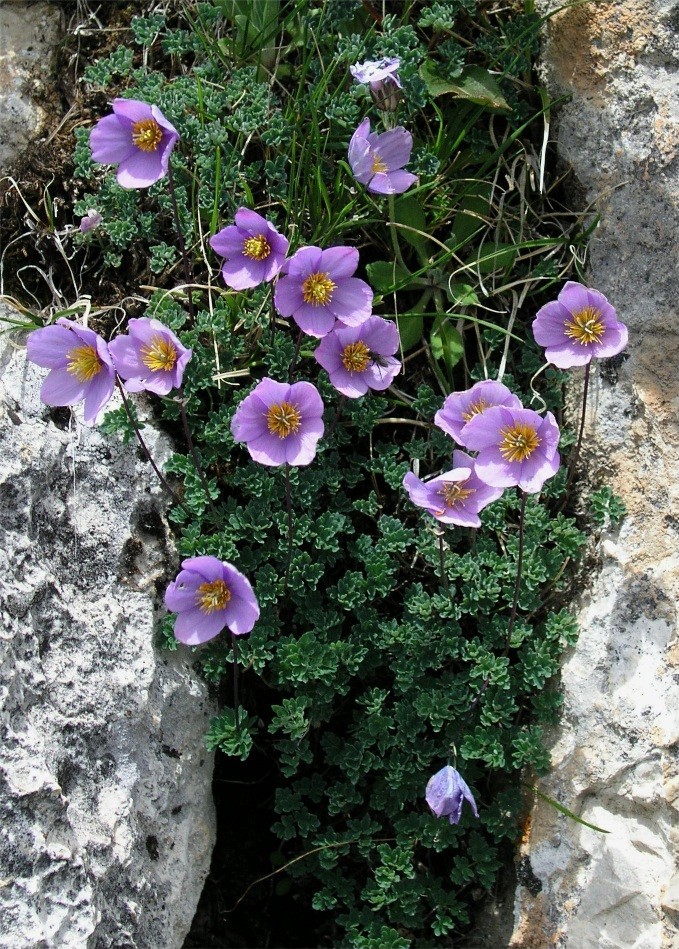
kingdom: Plantae
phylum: Tracheophyta
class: Magnoliopsida
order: Ranunculales
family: Ranunculaceae
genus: Paraquilegia
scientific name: Paraquilegia microphylla
